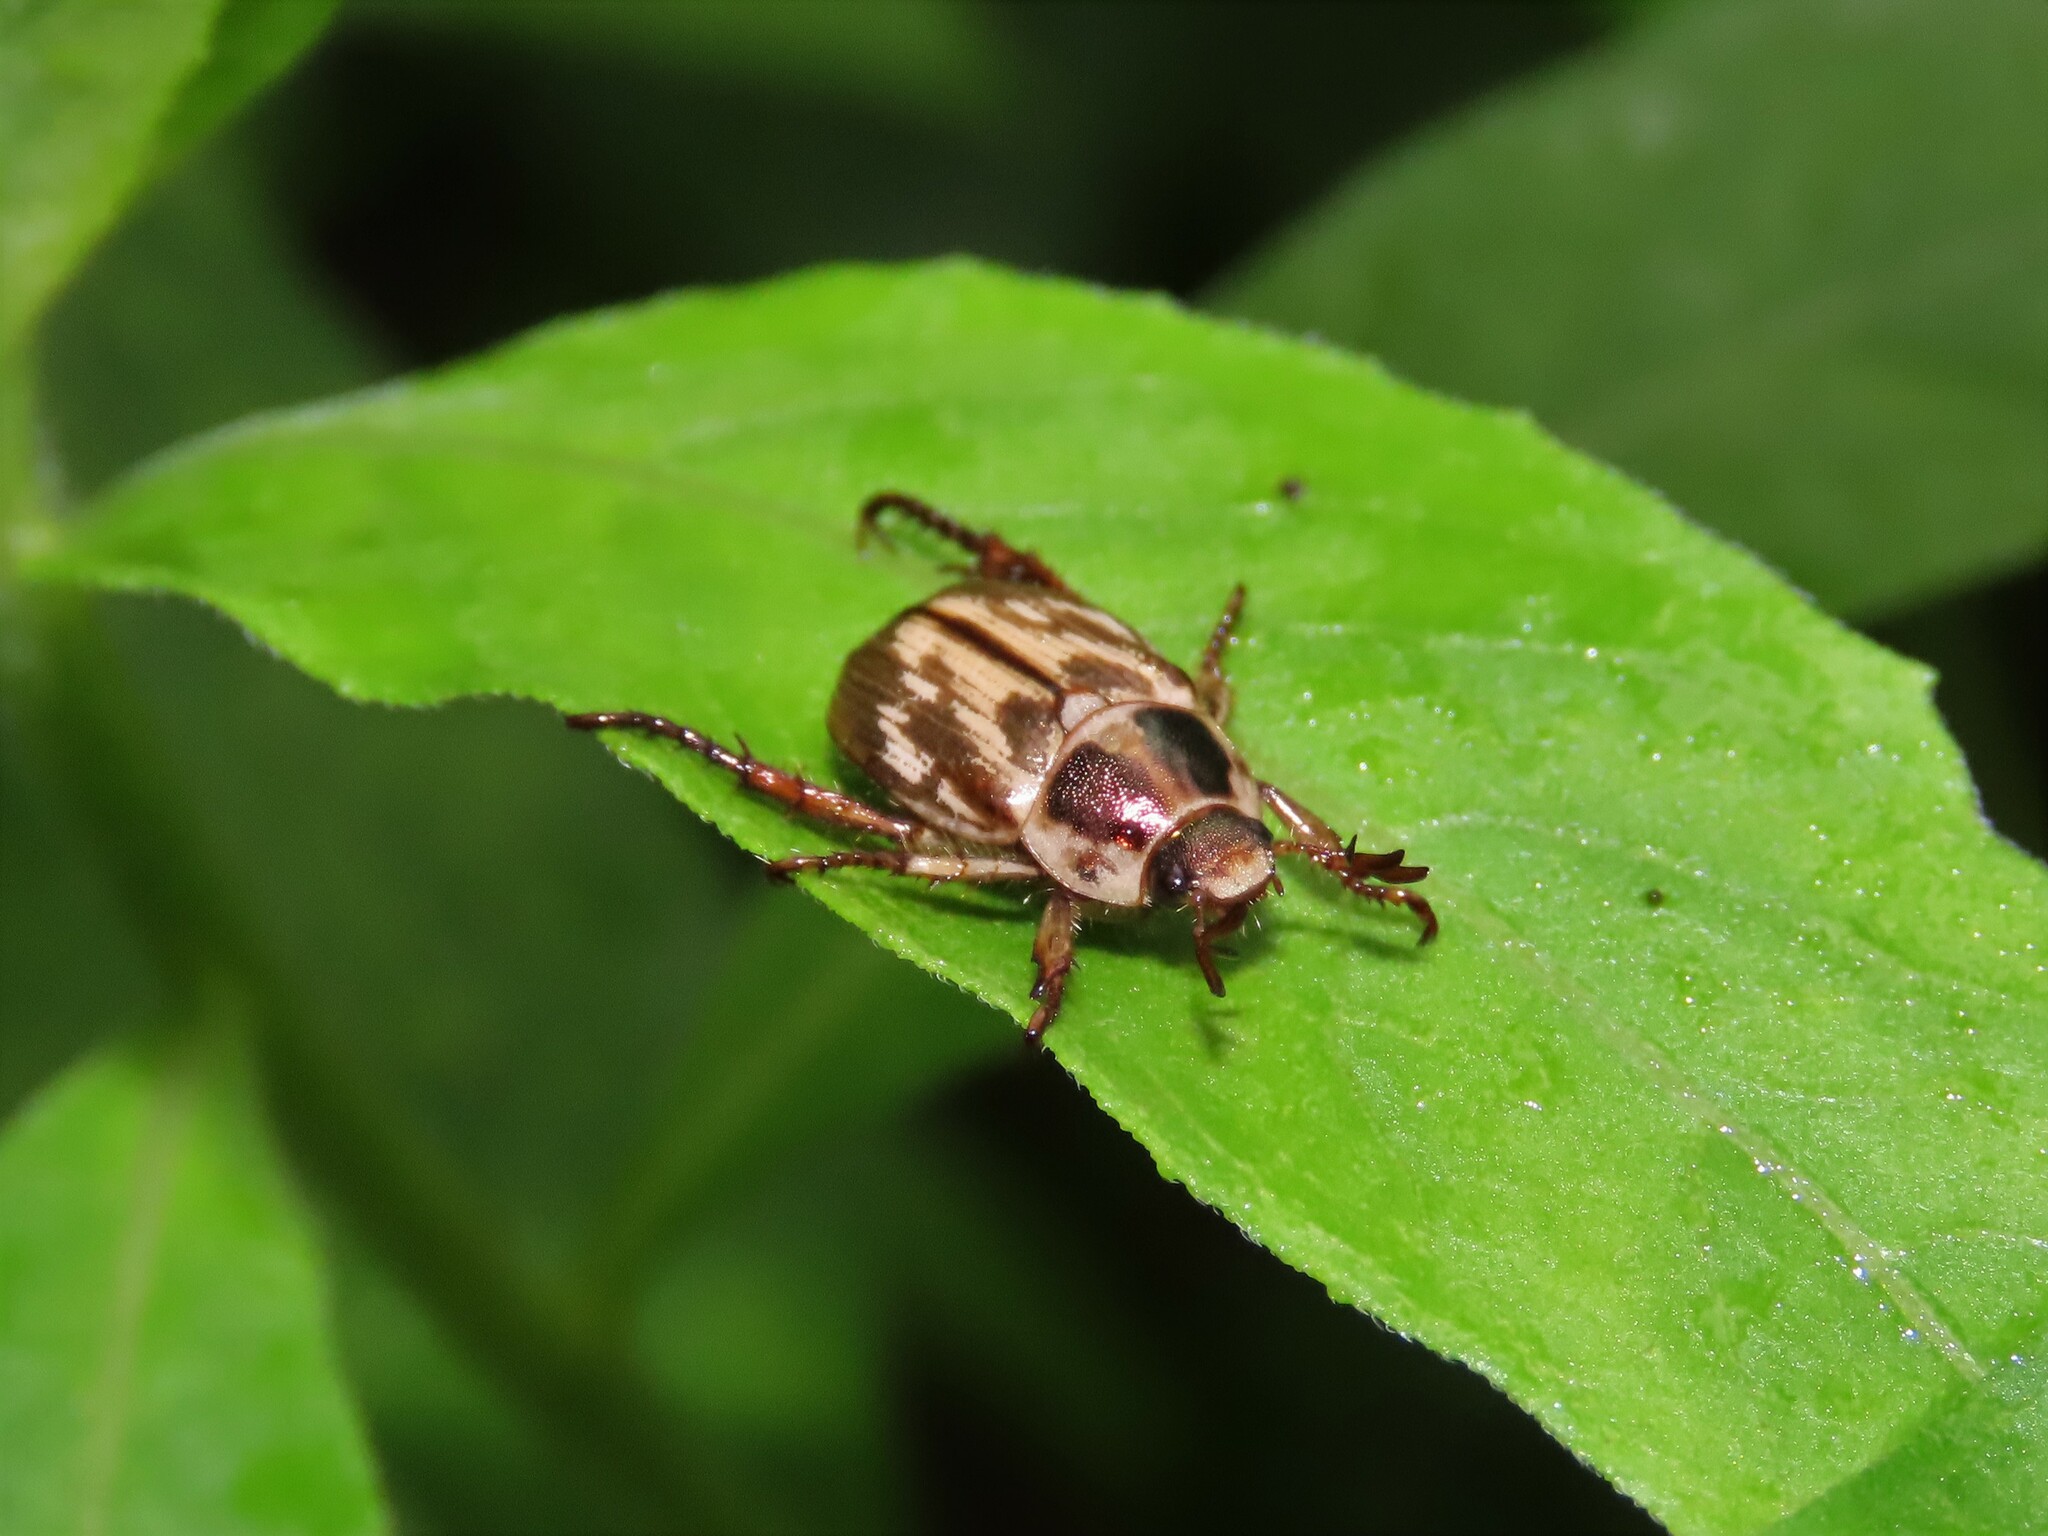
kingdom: Animalia
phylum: Arthropoda
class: Insecta
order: Coleoptera
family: Scarabaeidae
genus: Exomala
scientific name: Exomala orientalis
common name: Oriental beetle
